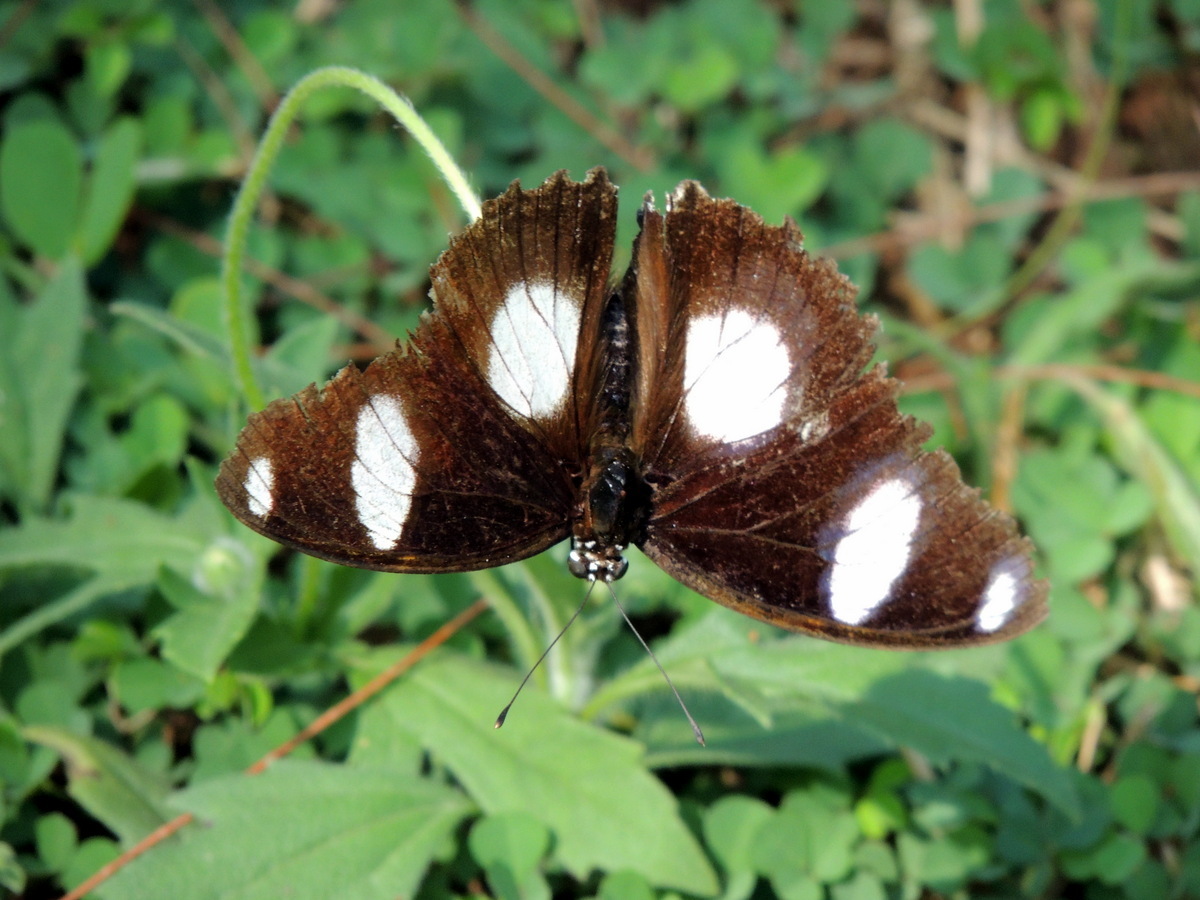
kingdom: Animalia
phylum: Arthropoda
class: Insecta
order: Lepidoptera
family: Nymphalidae
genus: Hypolimnas
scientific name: Hypolimnas misippus
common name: False plain tiger
